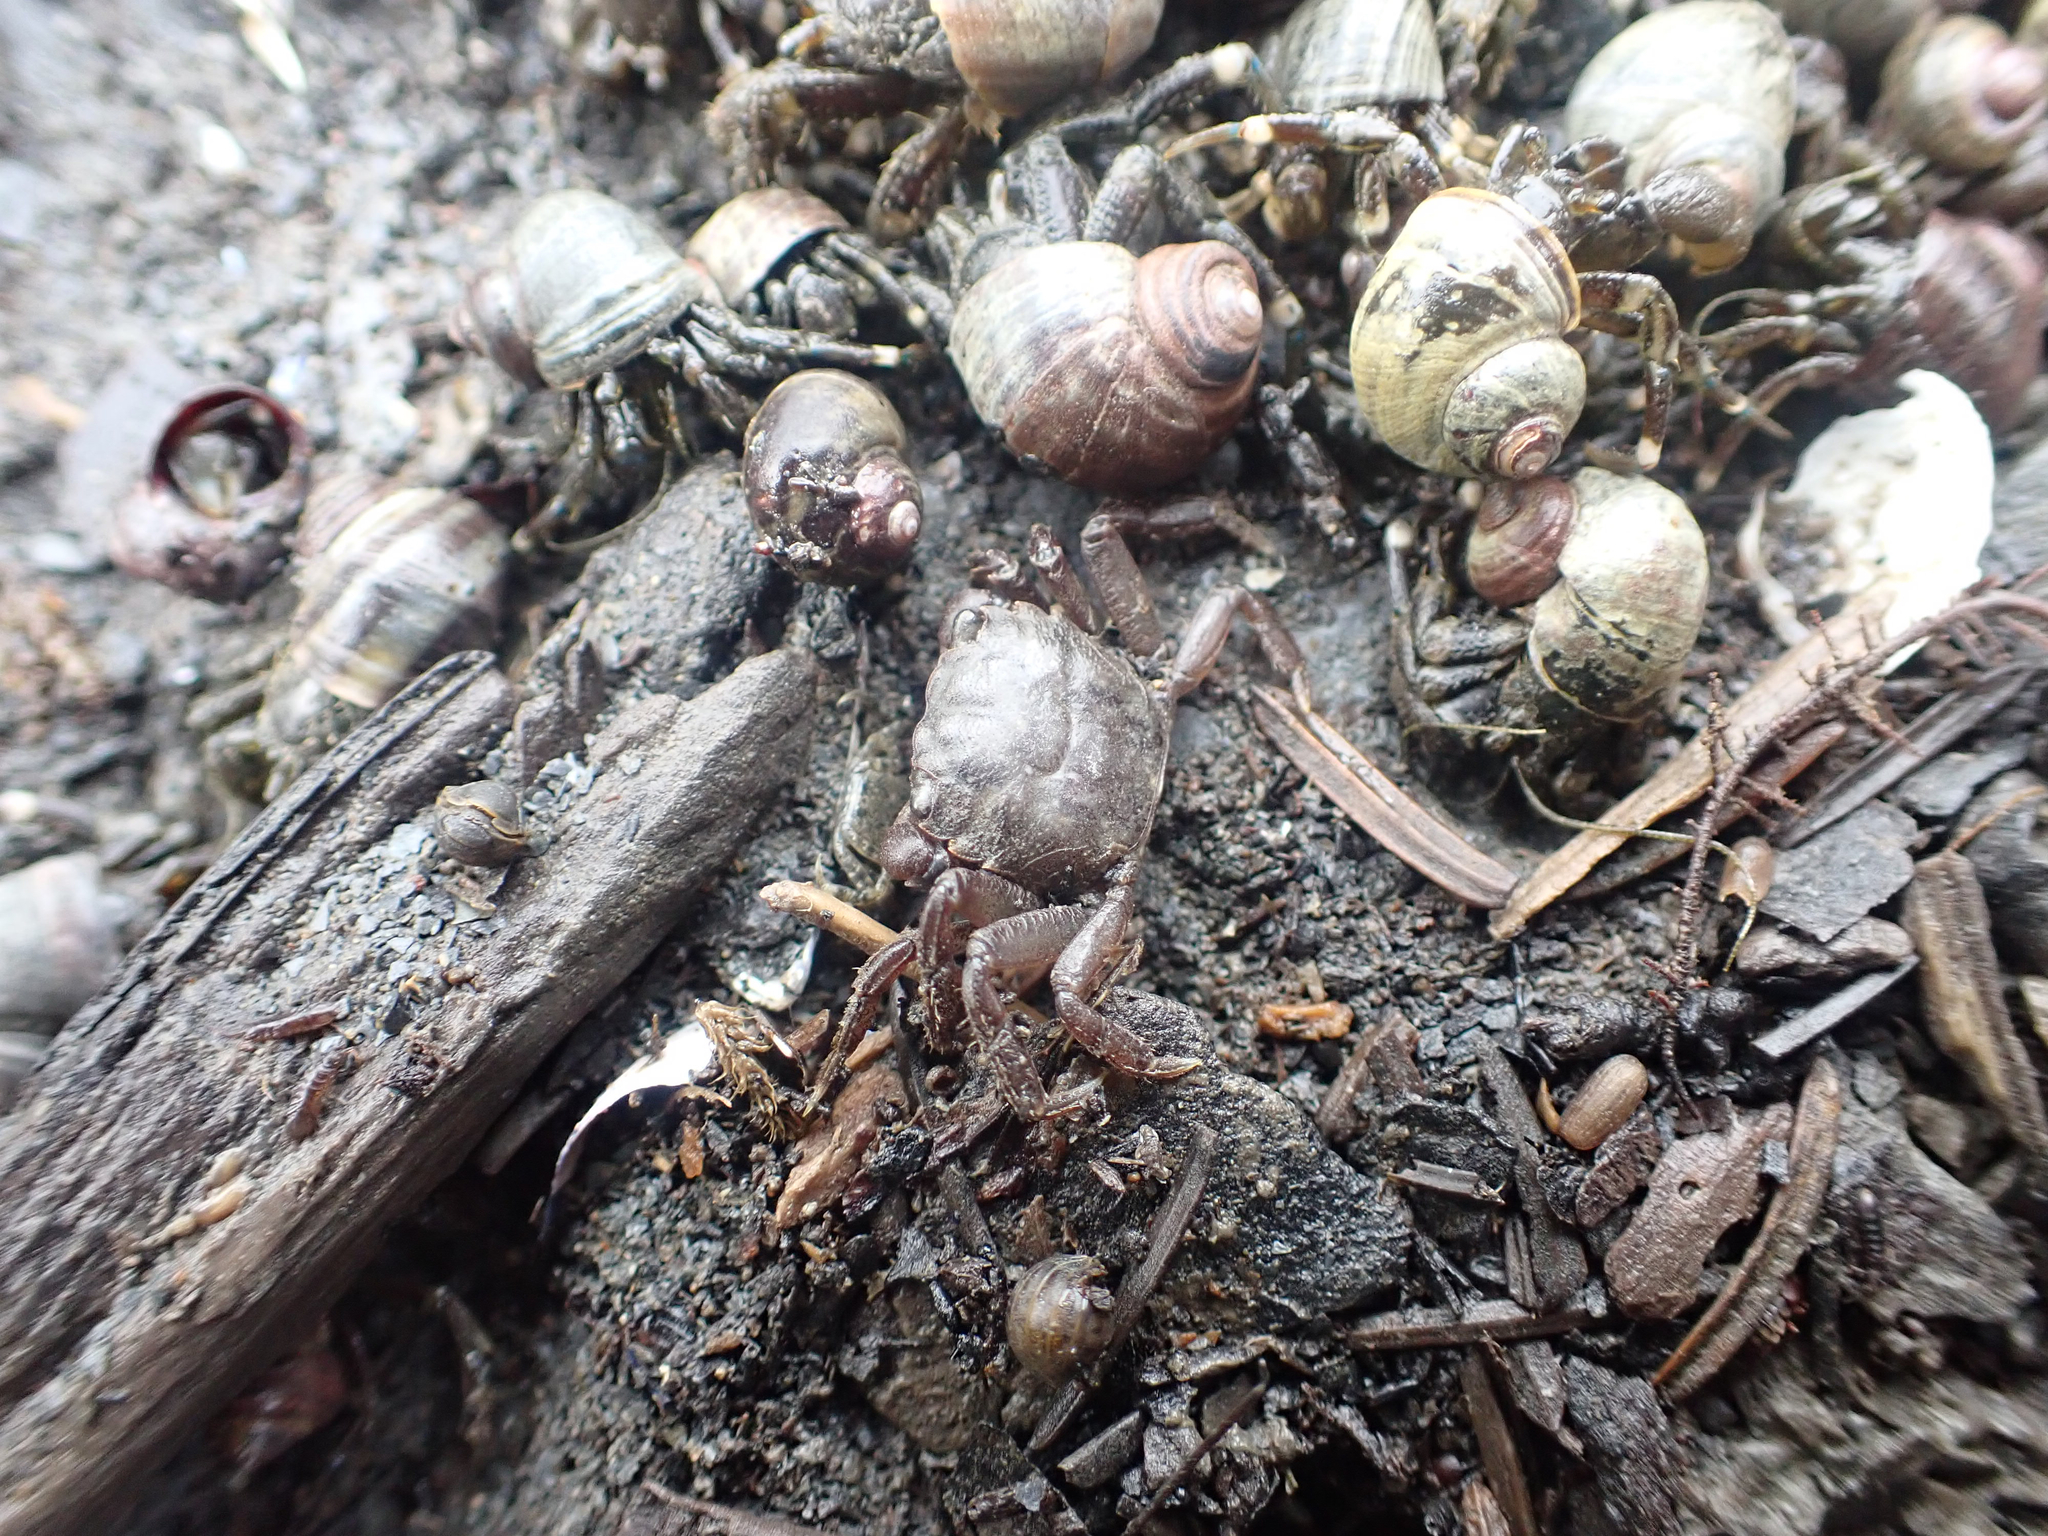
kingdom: Animalia
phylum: Arthropoda
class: Malacostraca
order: Decapoda
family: Varunidae
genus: Hemigrapsus
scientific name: Hemigrapsus oregonensis
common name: Yellow shore crab
